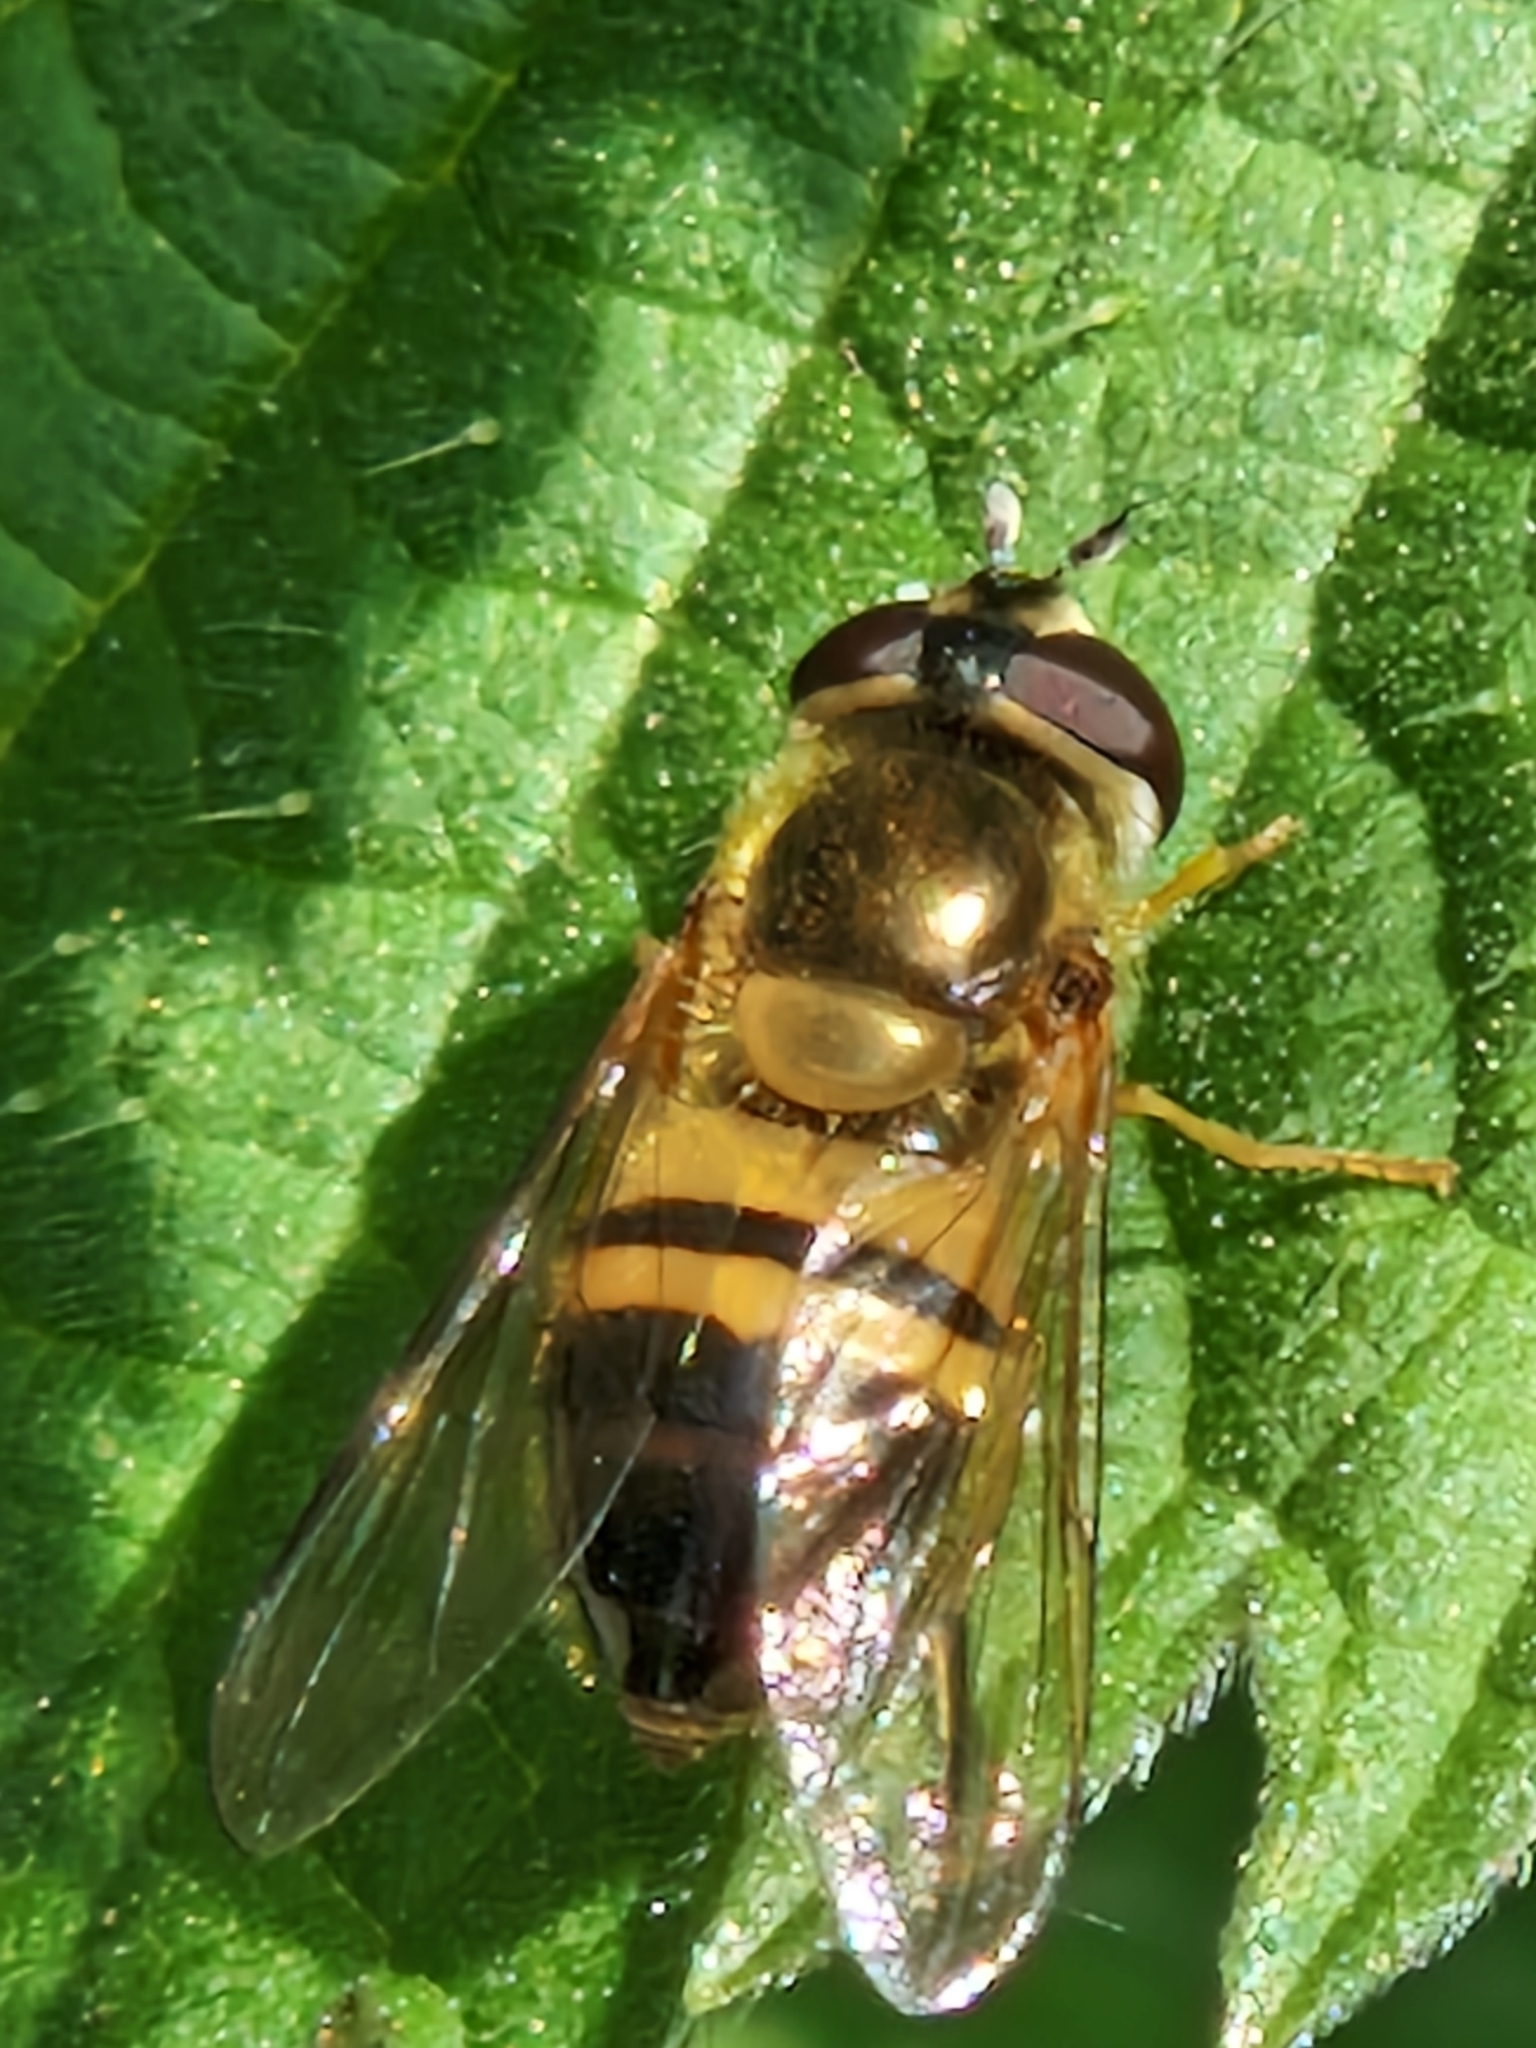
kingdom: Animalia
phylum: Arthropoda
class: Insecta
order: Diptera
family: Syrphidae
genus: Epistrophe
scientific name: Epistrophe eligans
